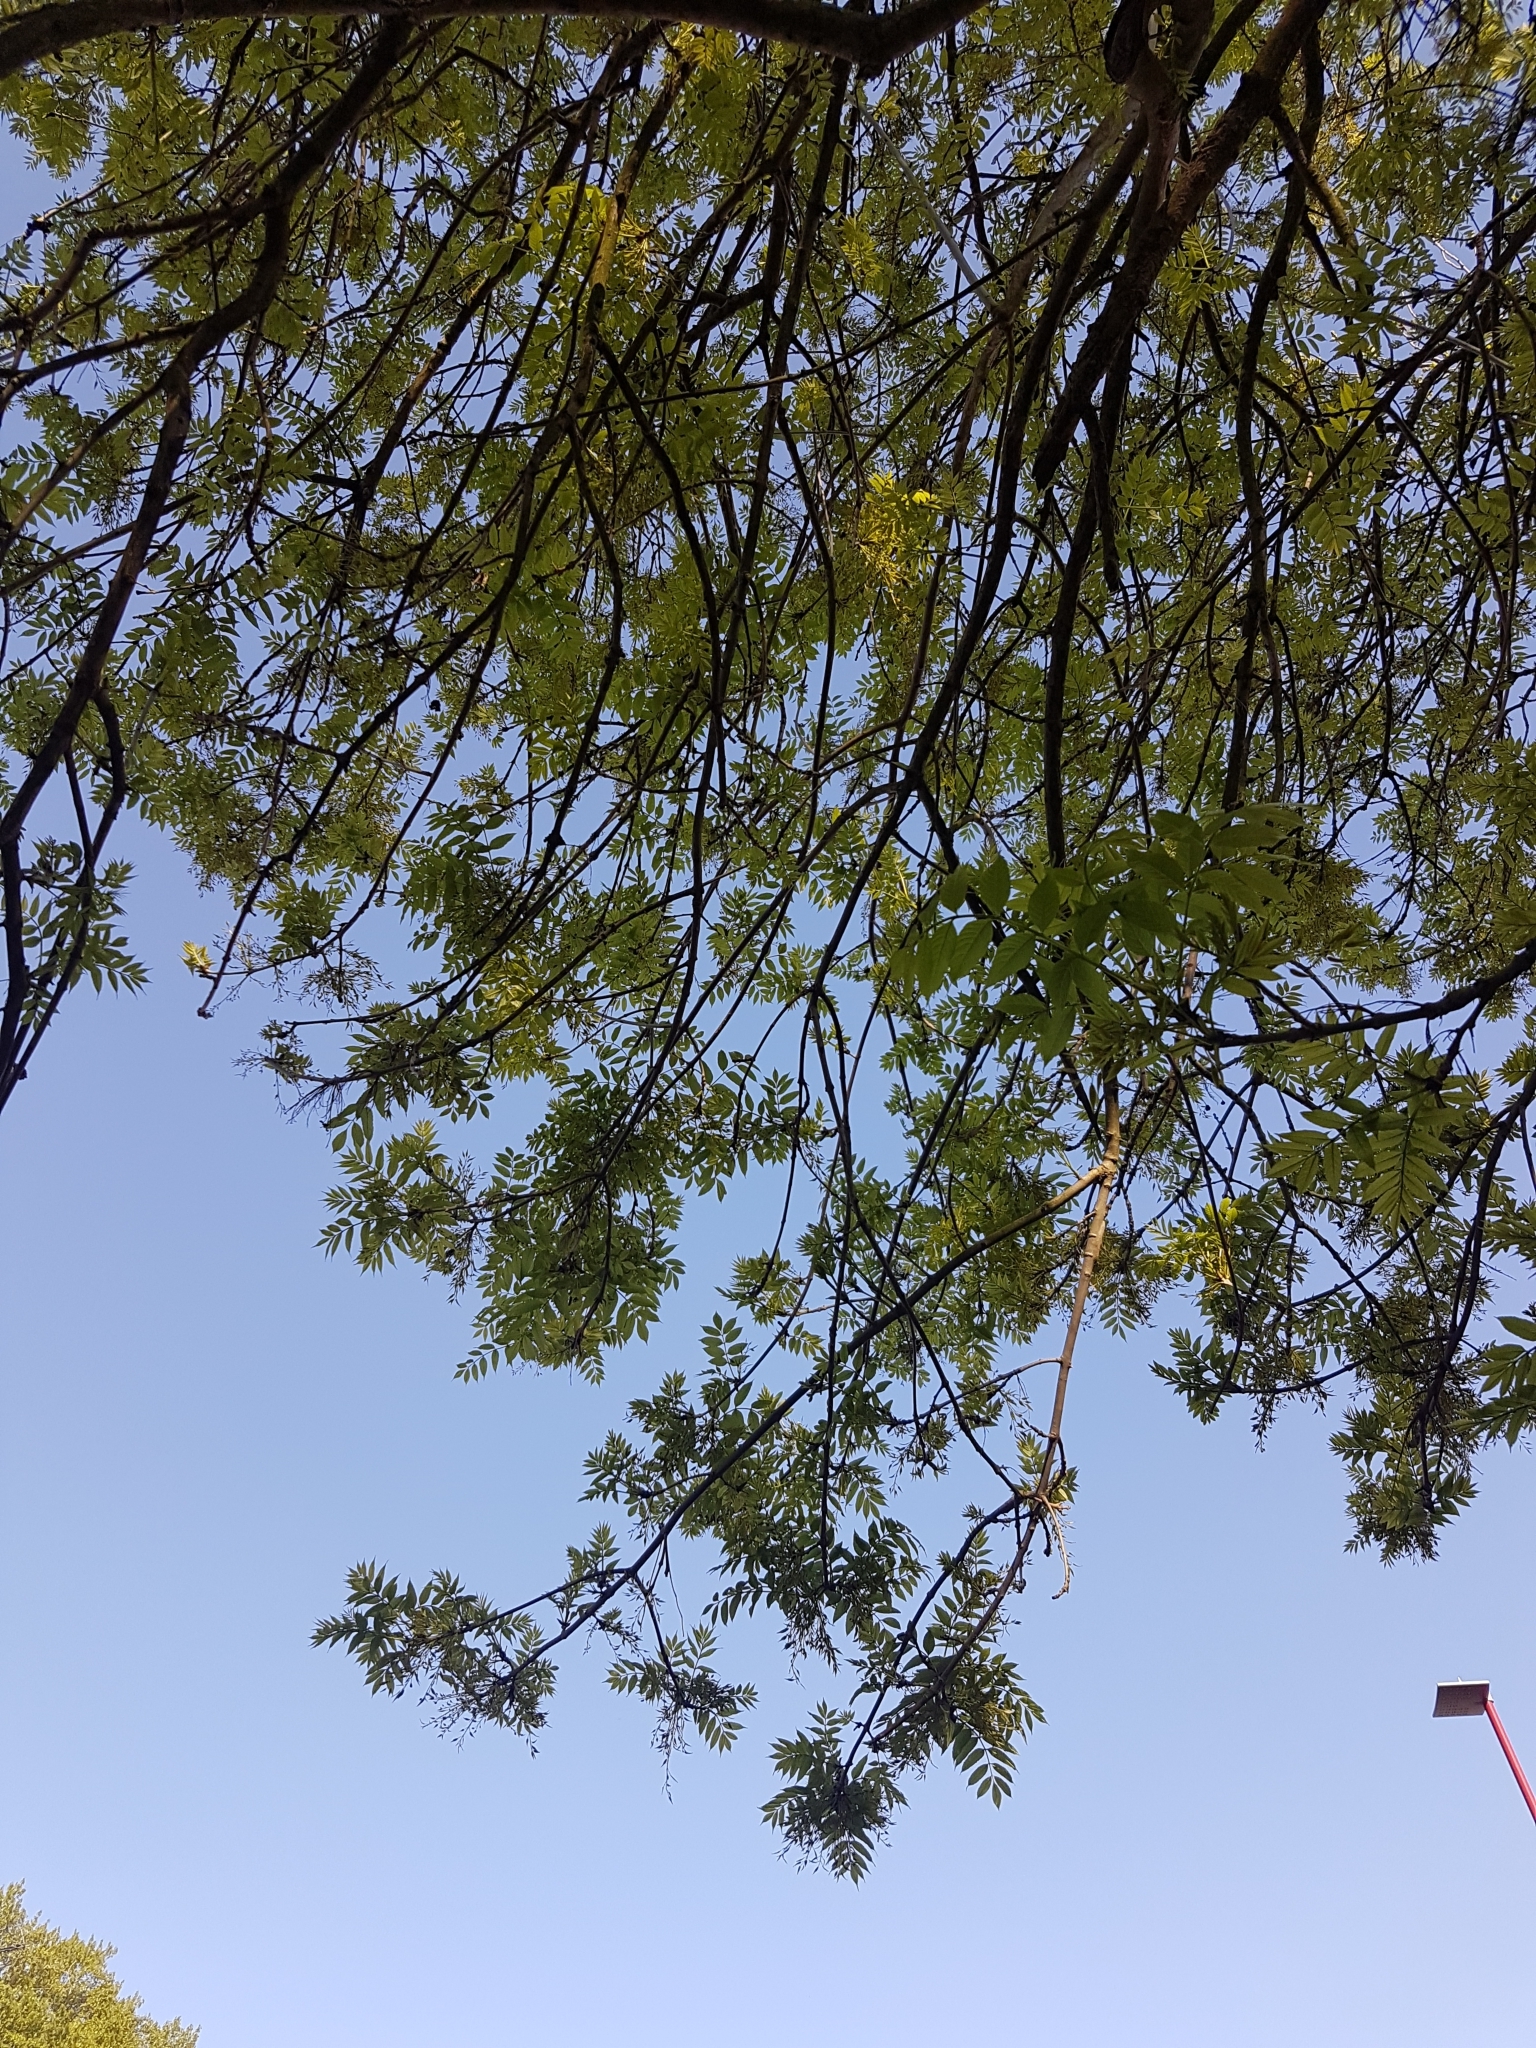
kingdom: Plantae
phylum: Tracheophyta
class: Magnoliopsida
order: Lamiales
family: Oleaceae
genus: Fraxinus
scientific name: Fraxinus excelsior
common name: European ash
